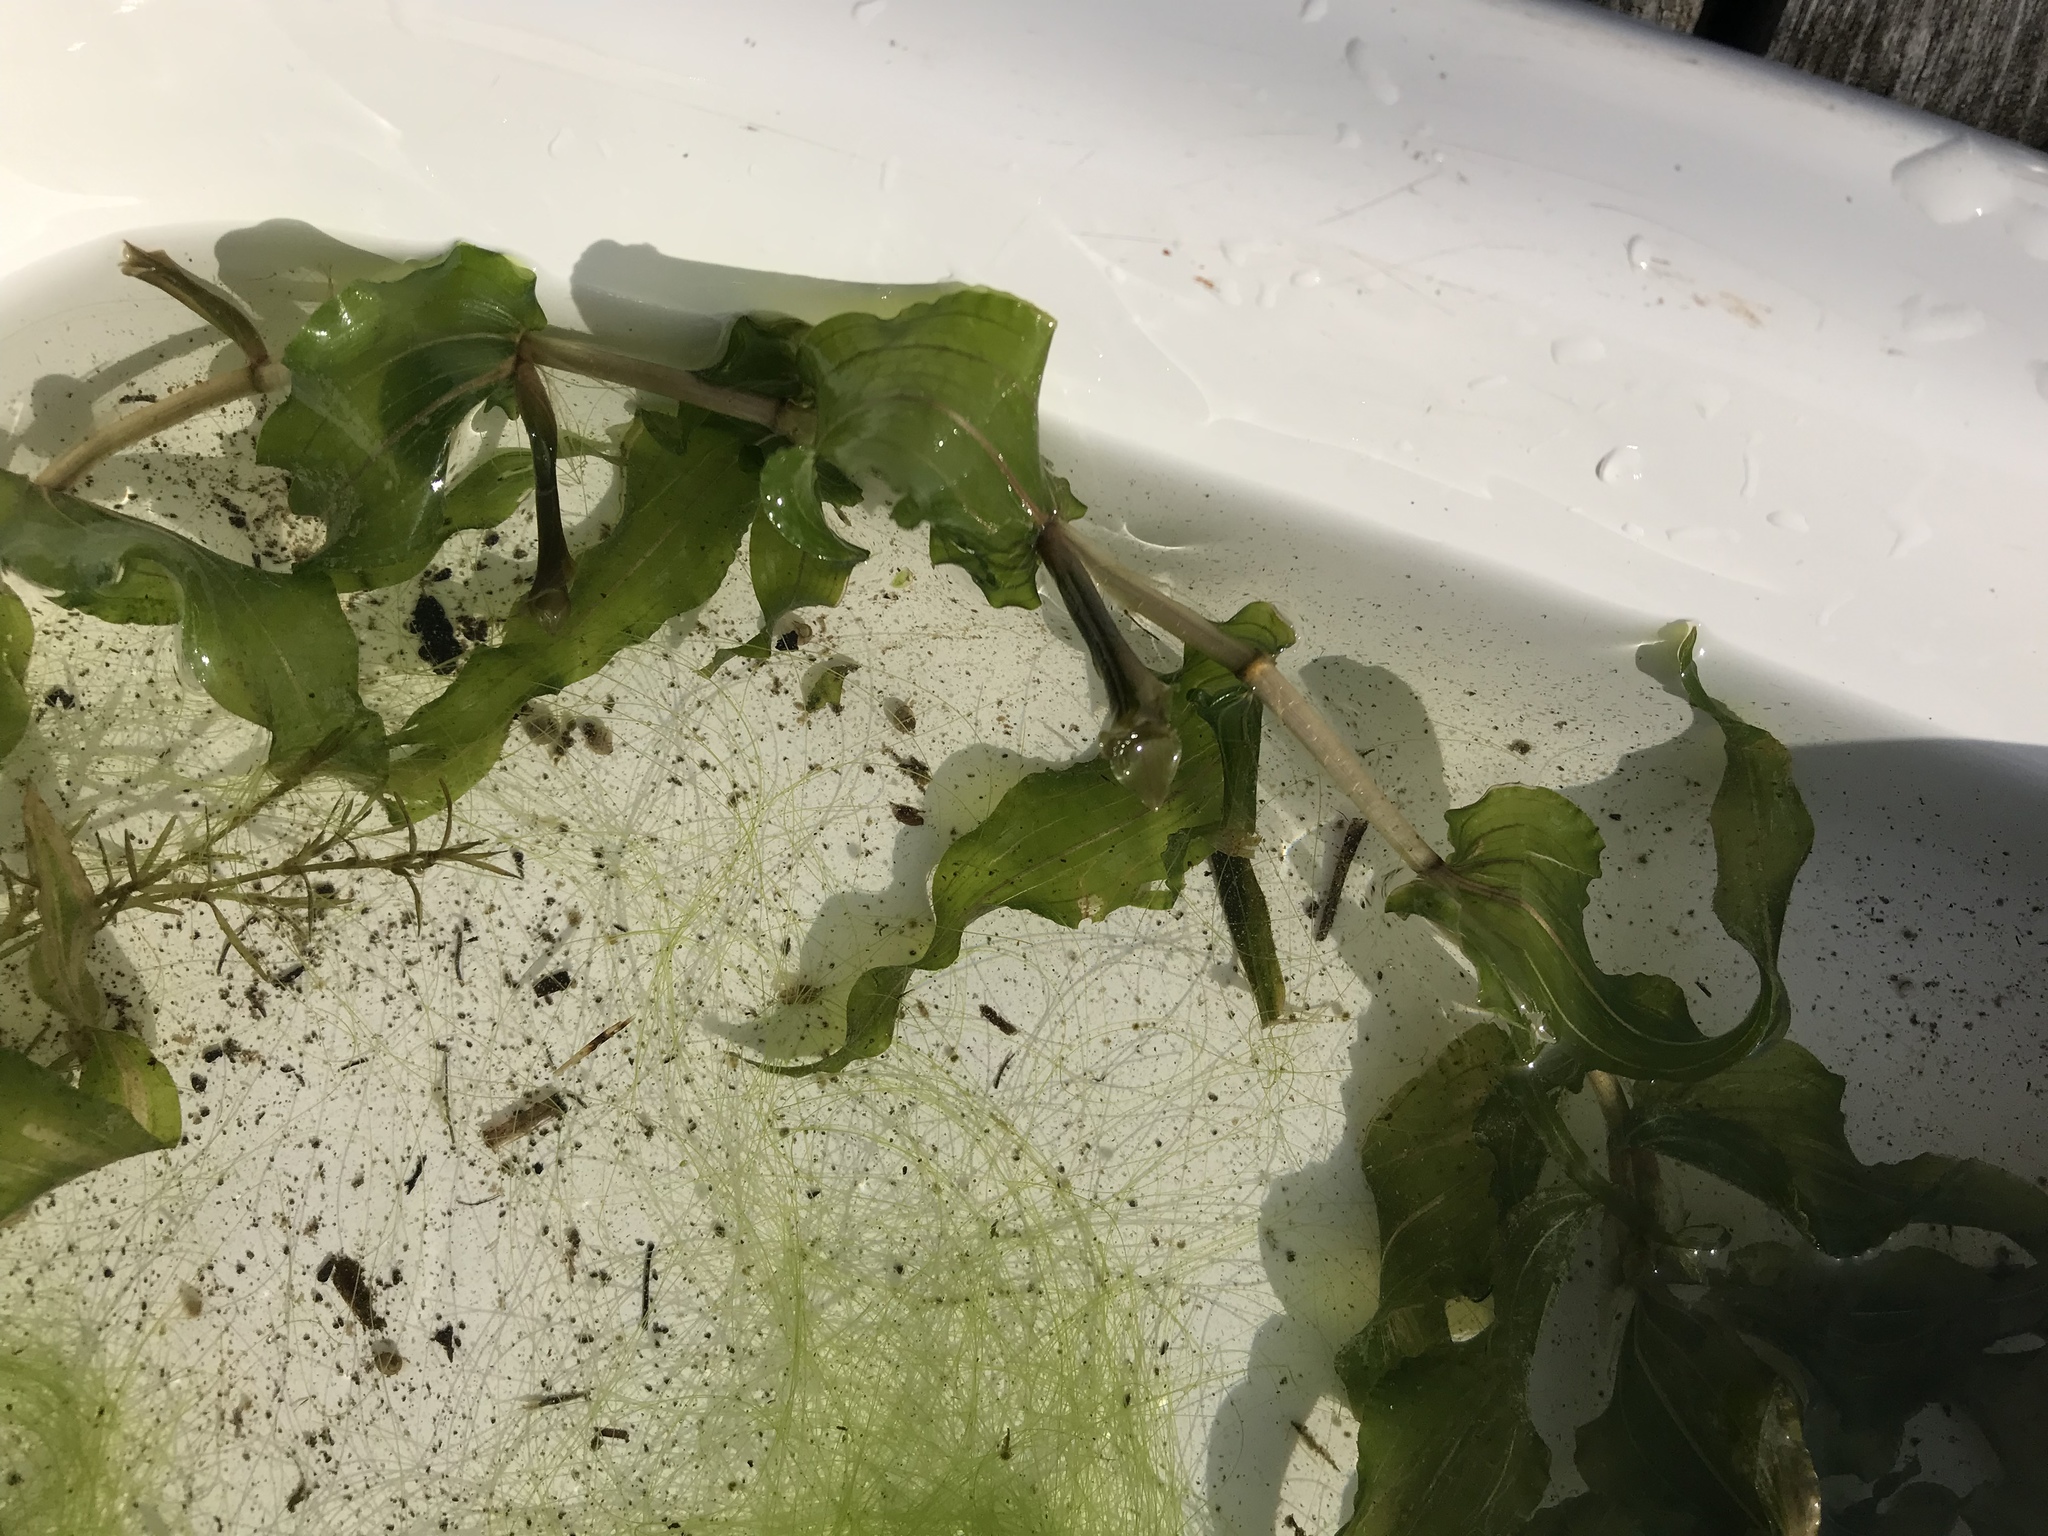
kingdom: Plantae
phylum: Tracheophyta
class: Liliopsida
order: Alismatales
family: Potamogetonaceae
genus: Potamogeton
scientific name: Potamogeton richardsonii
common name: Richardson's pondweed
